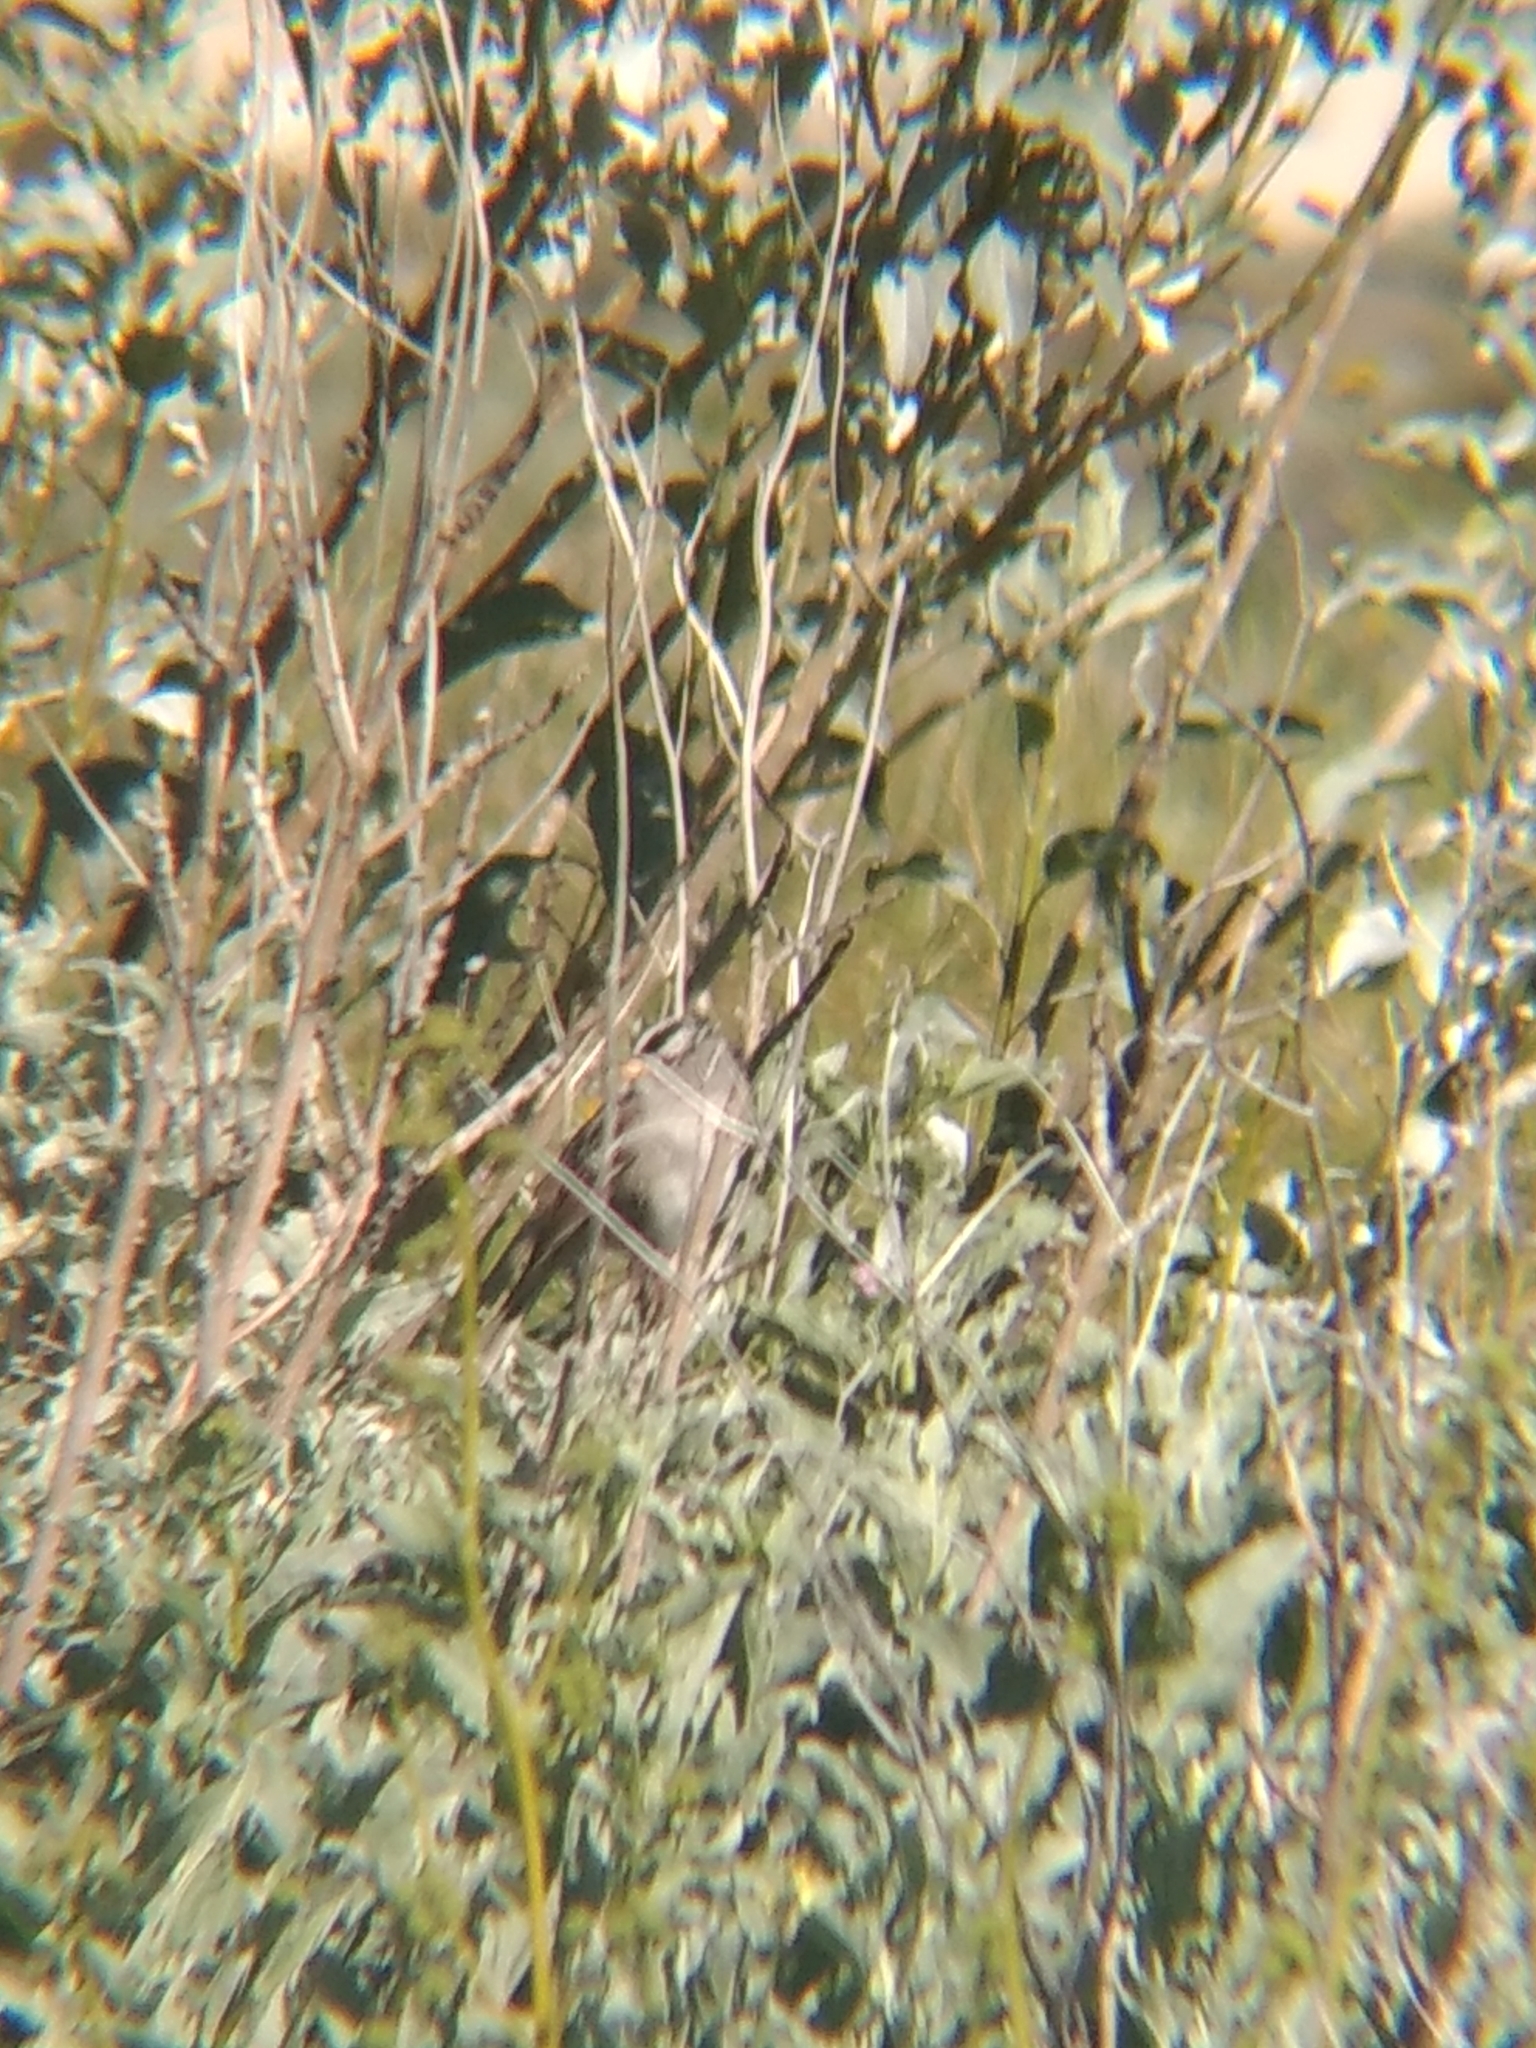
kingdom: Animalia
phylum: Chordata
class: Aves
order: Passeriformes
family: Passerellidae
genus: Zonotrichia
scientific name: Zonotrichia leucophrys
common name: White-crowned sparrow
